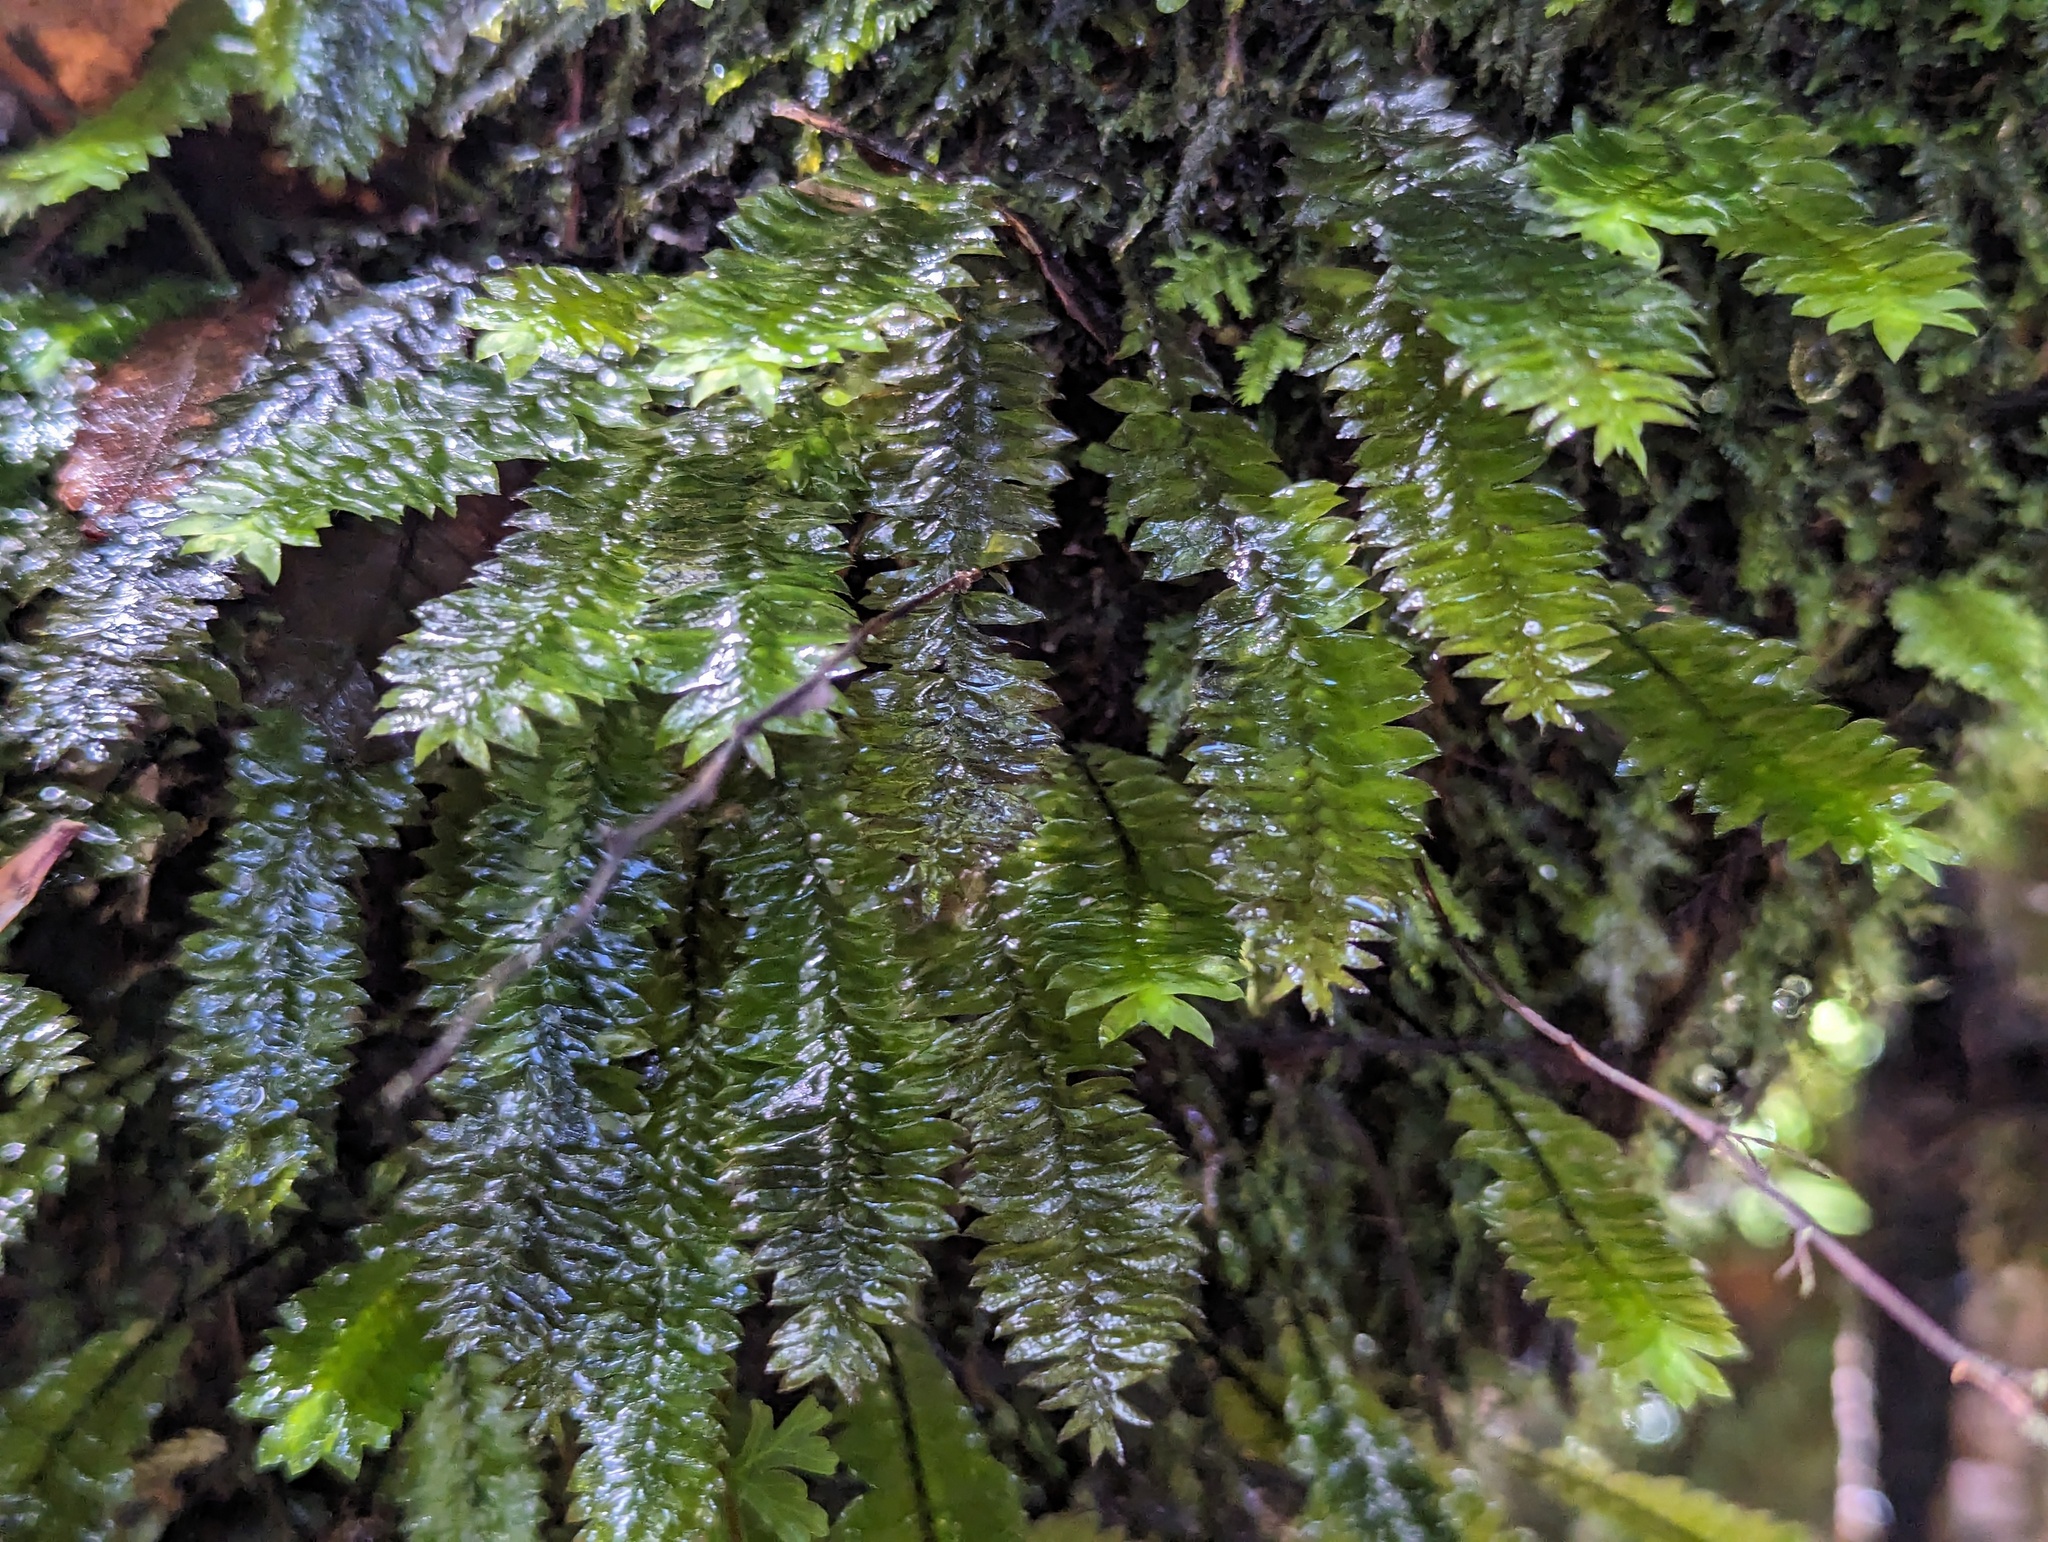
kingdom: Plantae
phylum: Bryophyta
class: Bryopsida
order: Hypopterygiales
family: Hypopterygiaceae
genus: Cyathophorum
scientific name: Cyathophorum bulbosum
